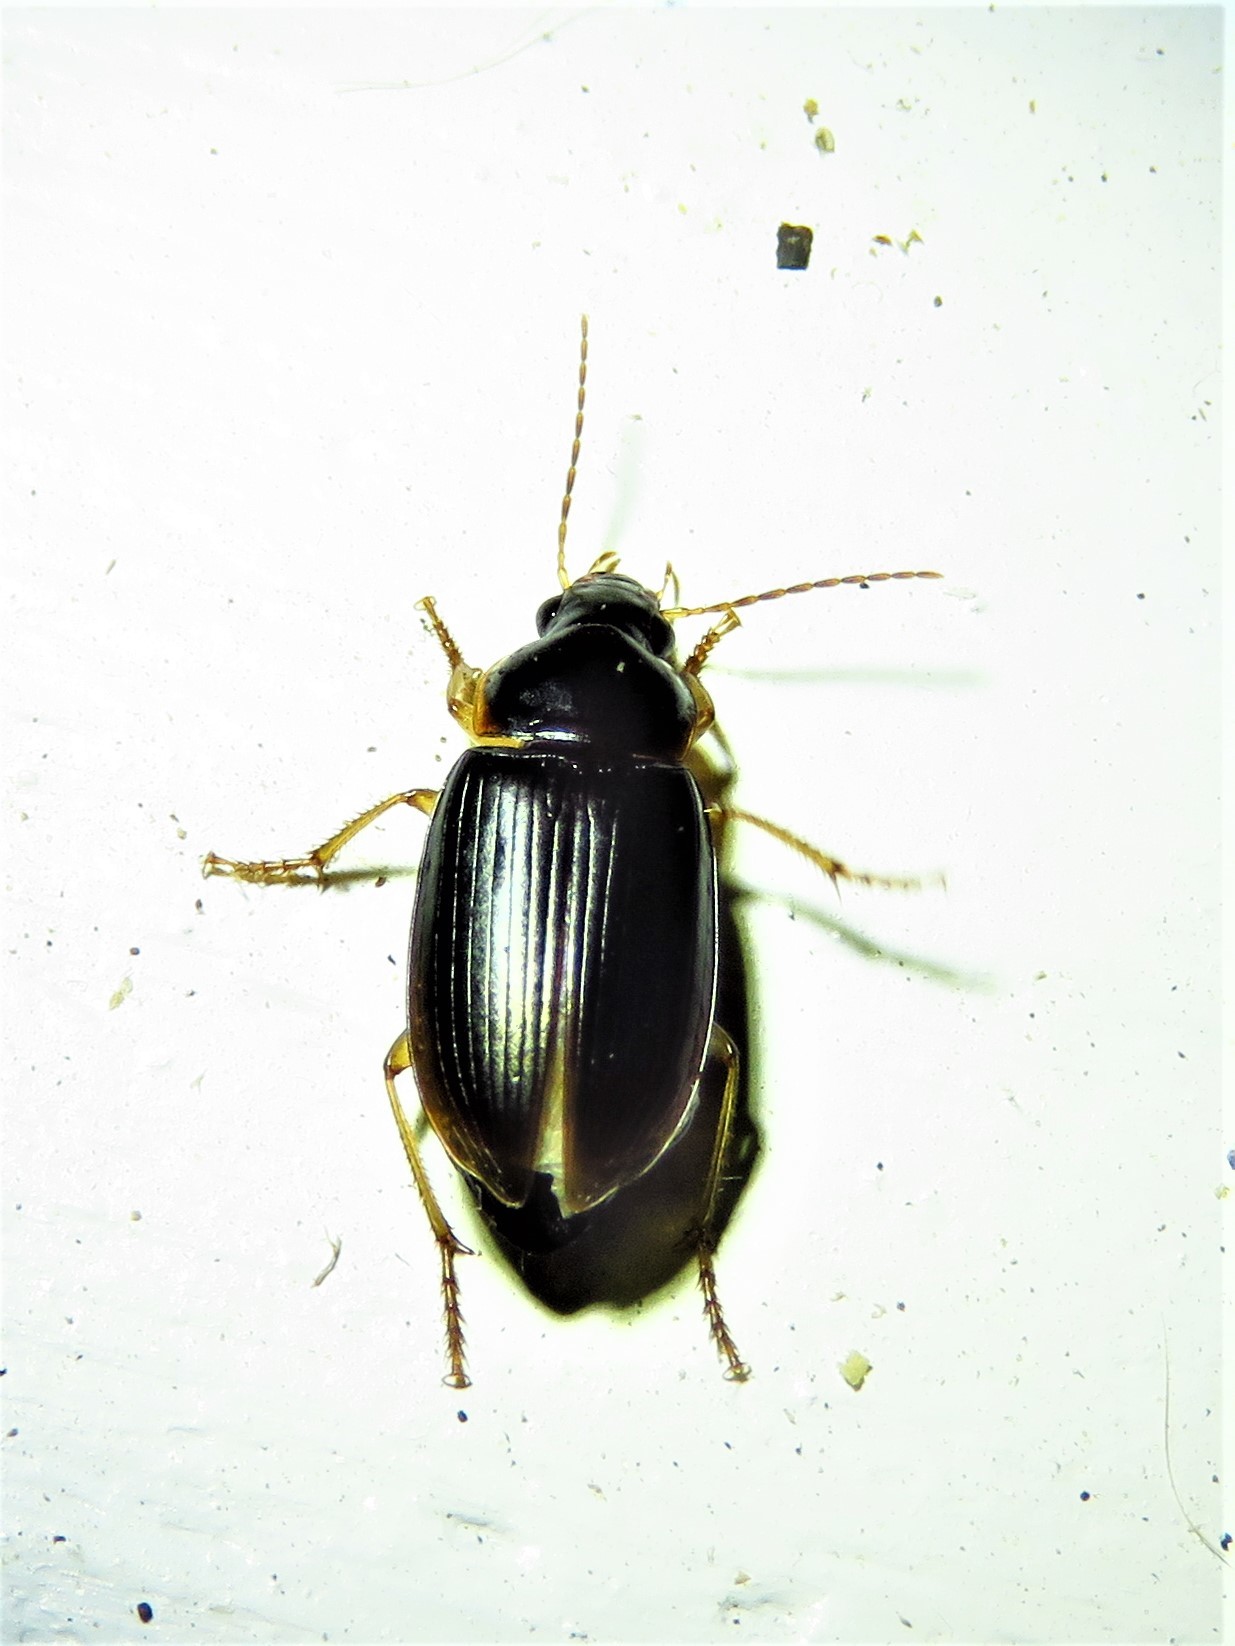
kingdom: Animalia
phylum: Arthropoda
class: Insecta
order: Coleoptera
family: Carabidae
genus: Notiobia
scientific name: Notiobia terminata
